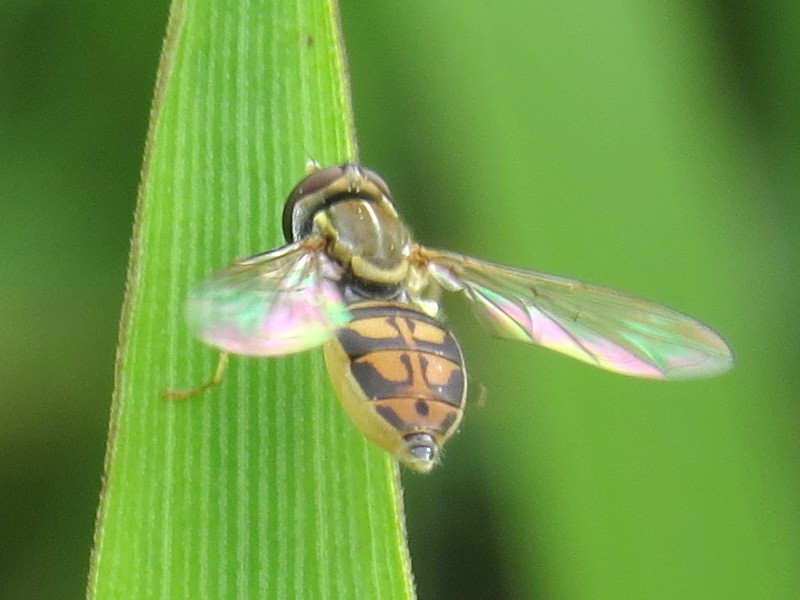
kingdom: Animalia
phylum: Arthropoda
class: Insecta
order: Diptera
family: Syrphidae
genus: Toxomerus
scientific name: Toxomerus marginatus
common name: Syrphid fly
